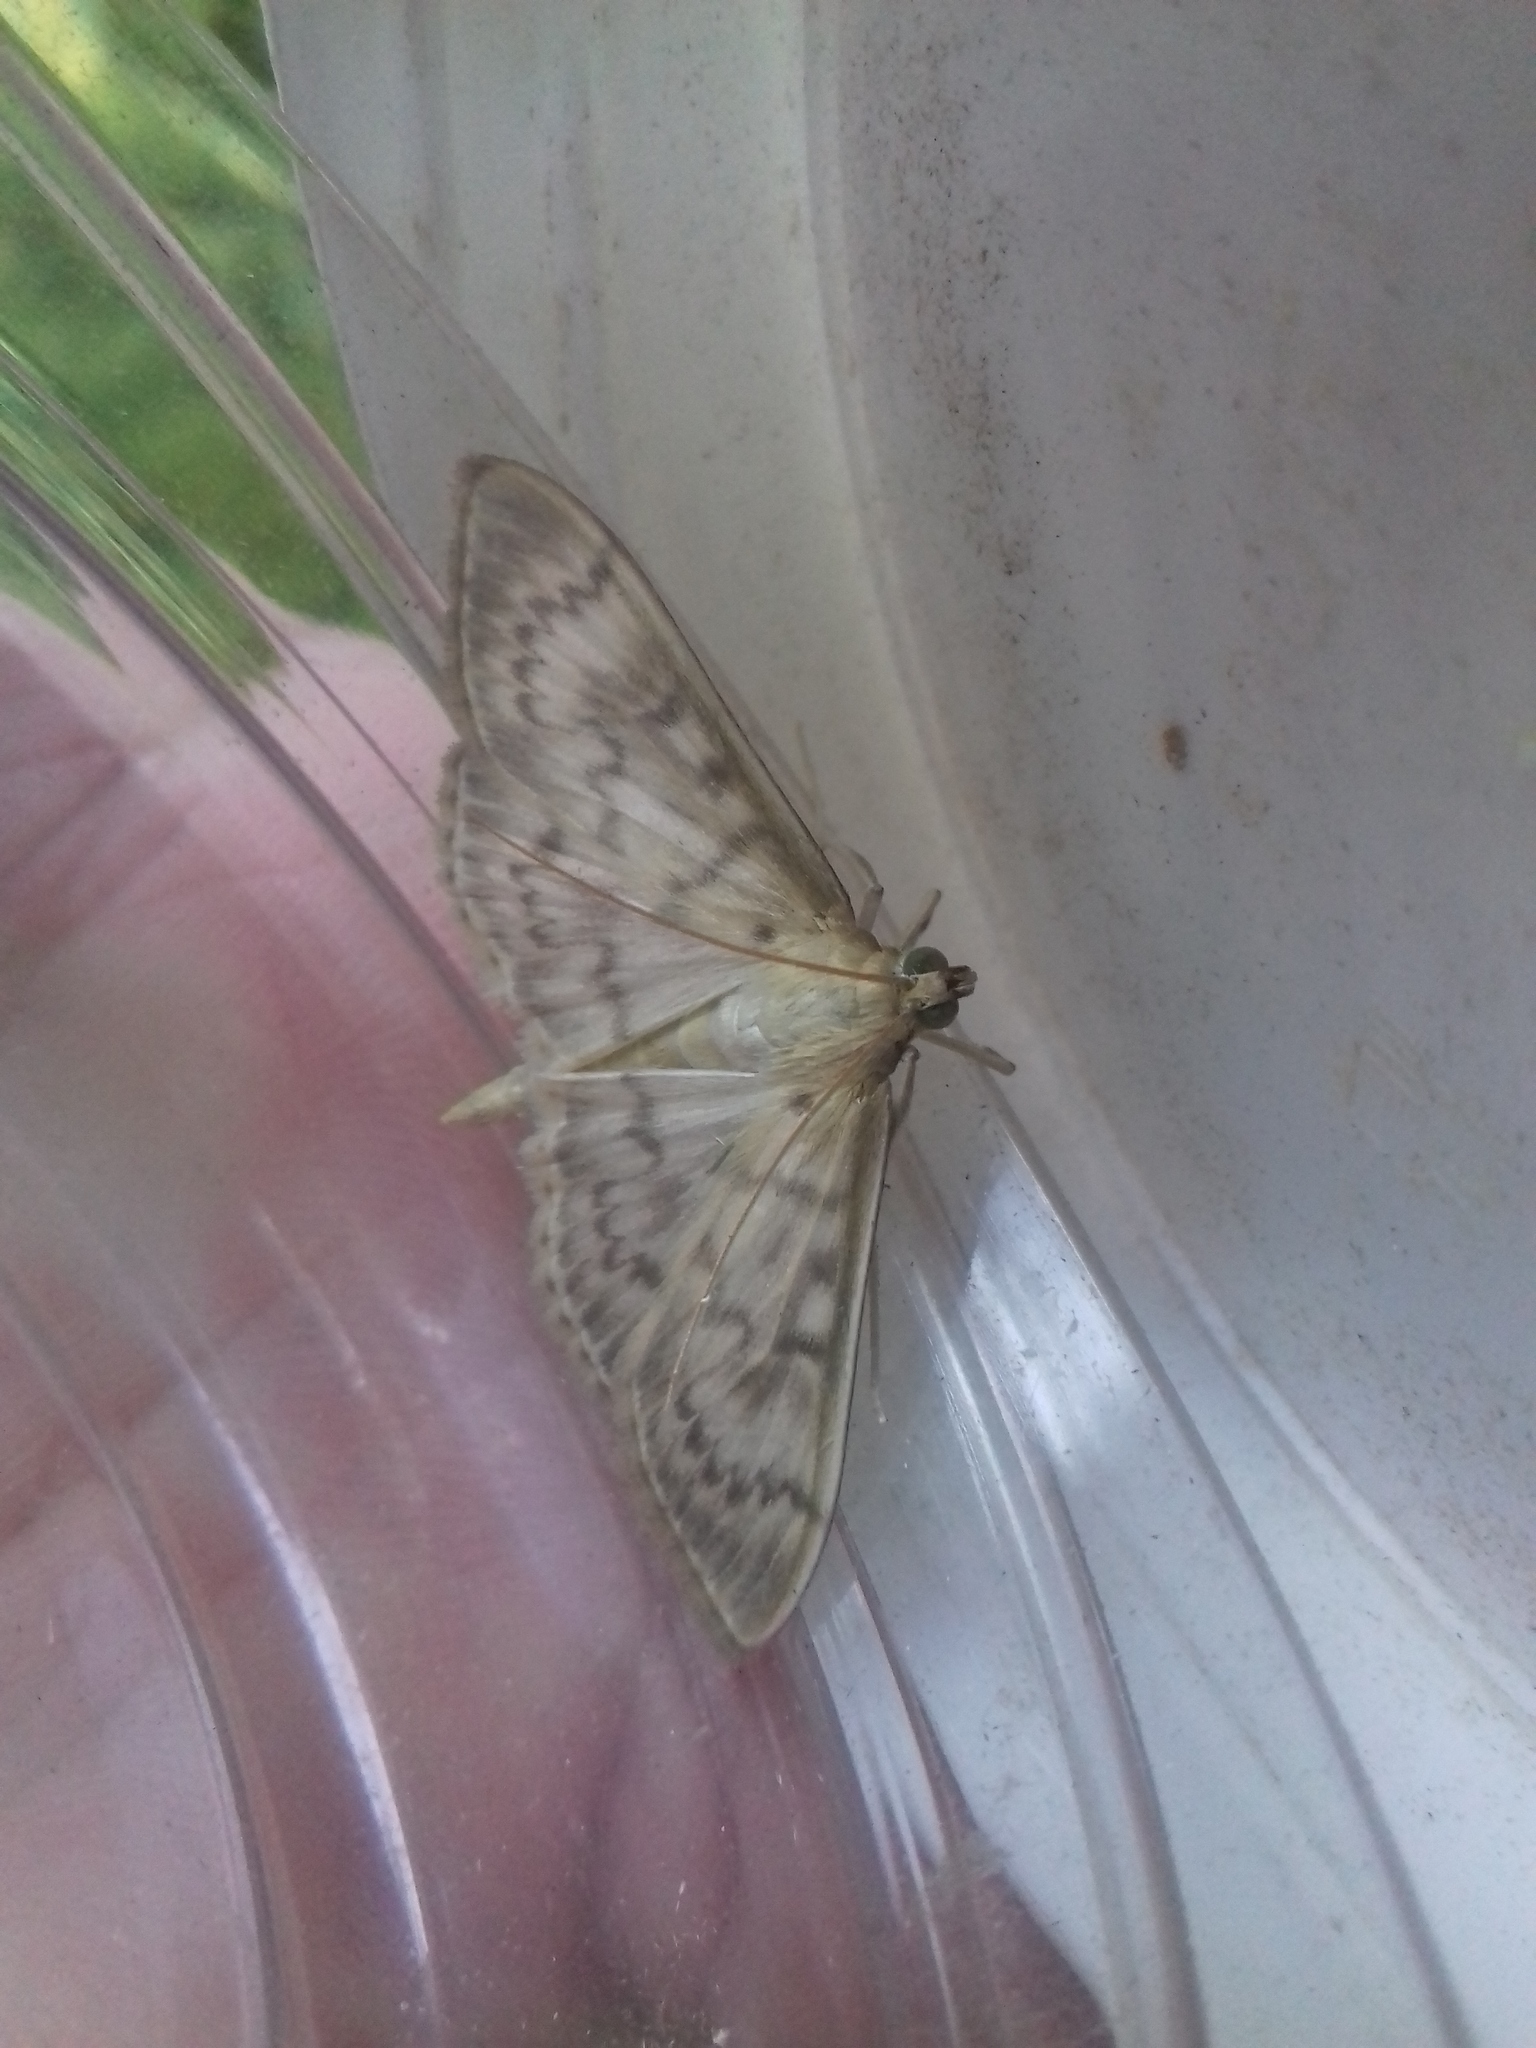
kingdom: Animalia
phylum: Arthropoda
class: Insecta
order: Lepidoptera
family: Crambidae
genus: Patania
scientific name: Patania ruralis
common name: Mother of pearl
